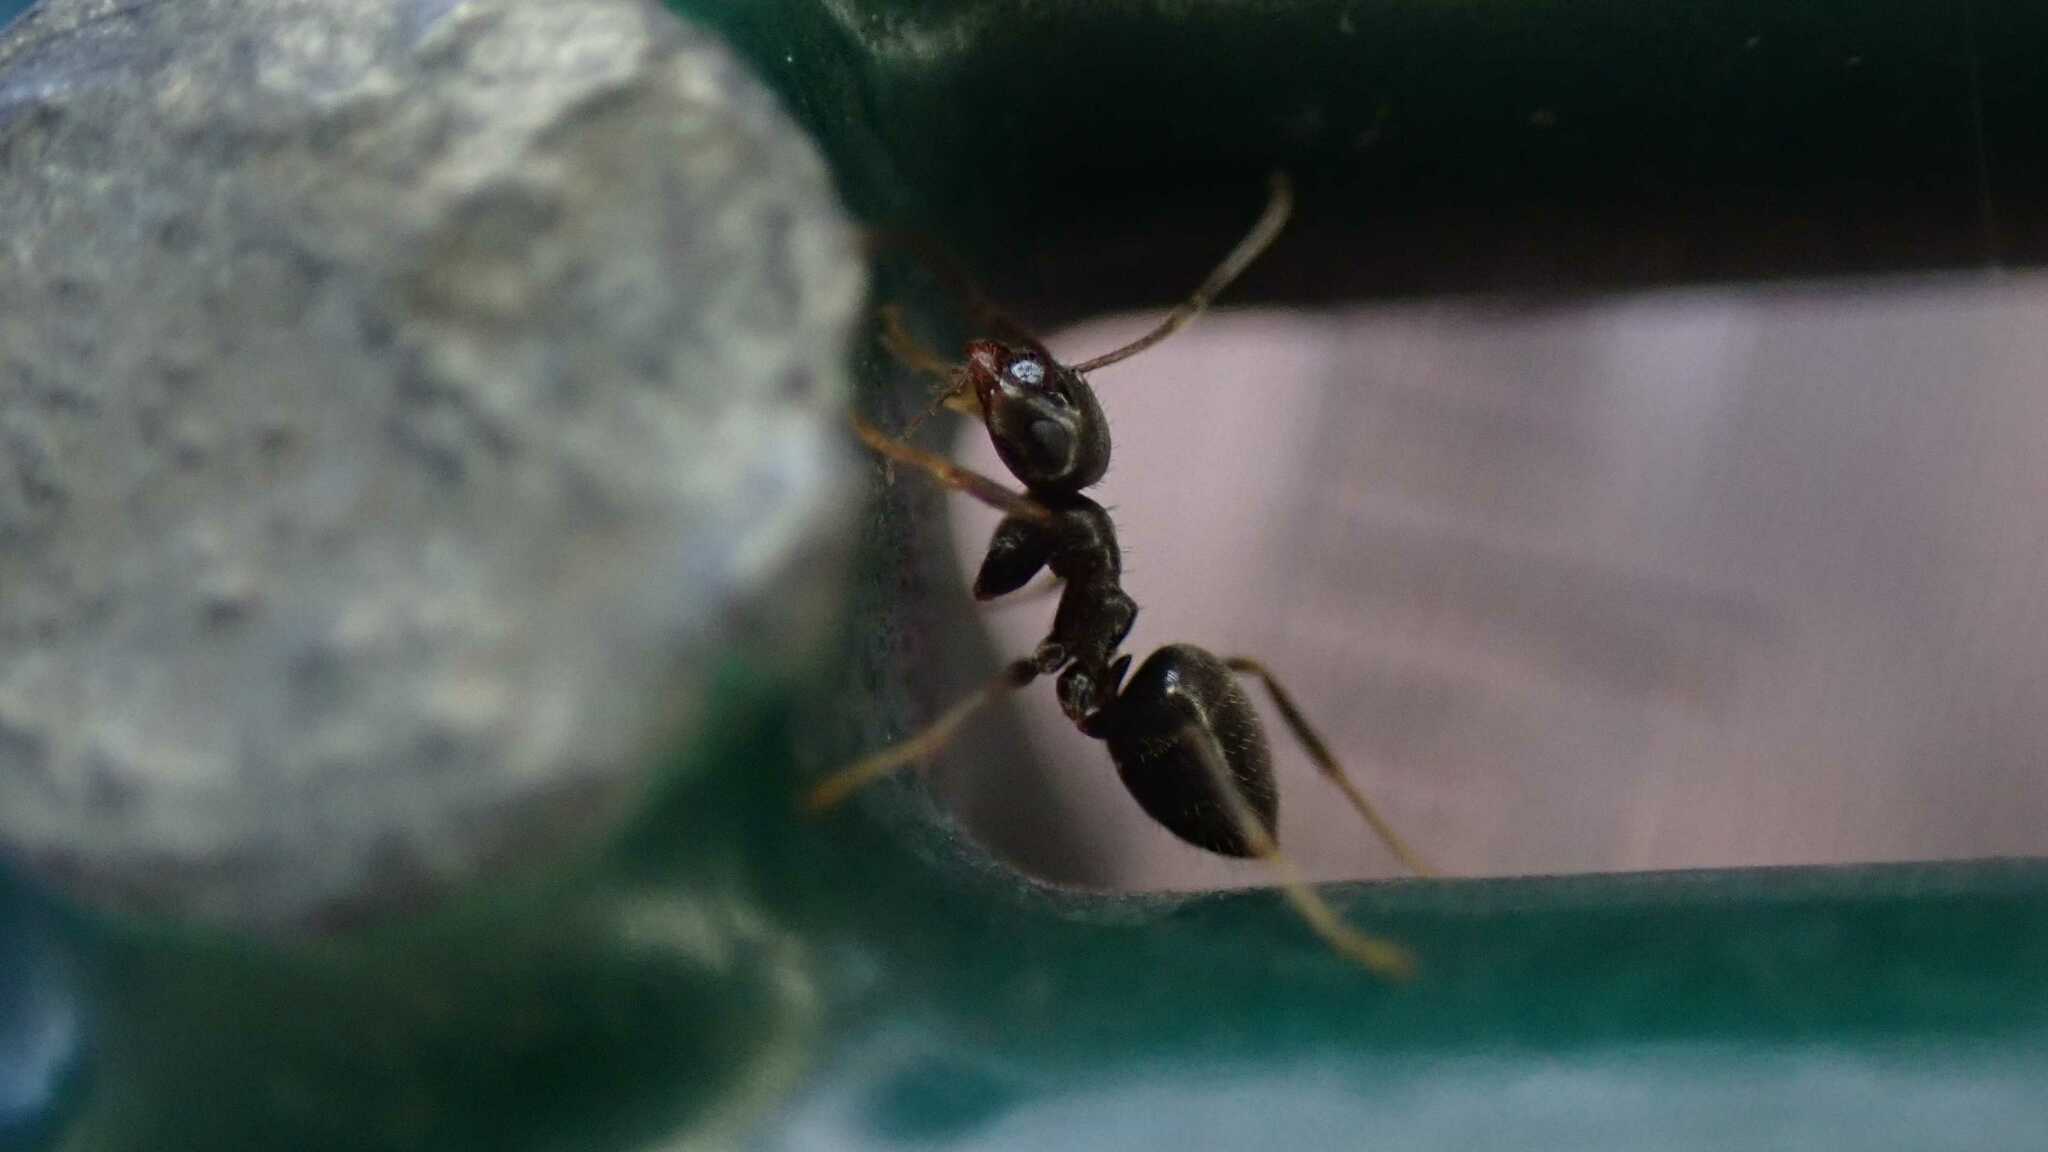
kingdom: Animalia
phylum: Arthropoda
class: Insecta
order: Hymenoptera
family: Formicidae
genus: Lasius
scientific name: Lasius
